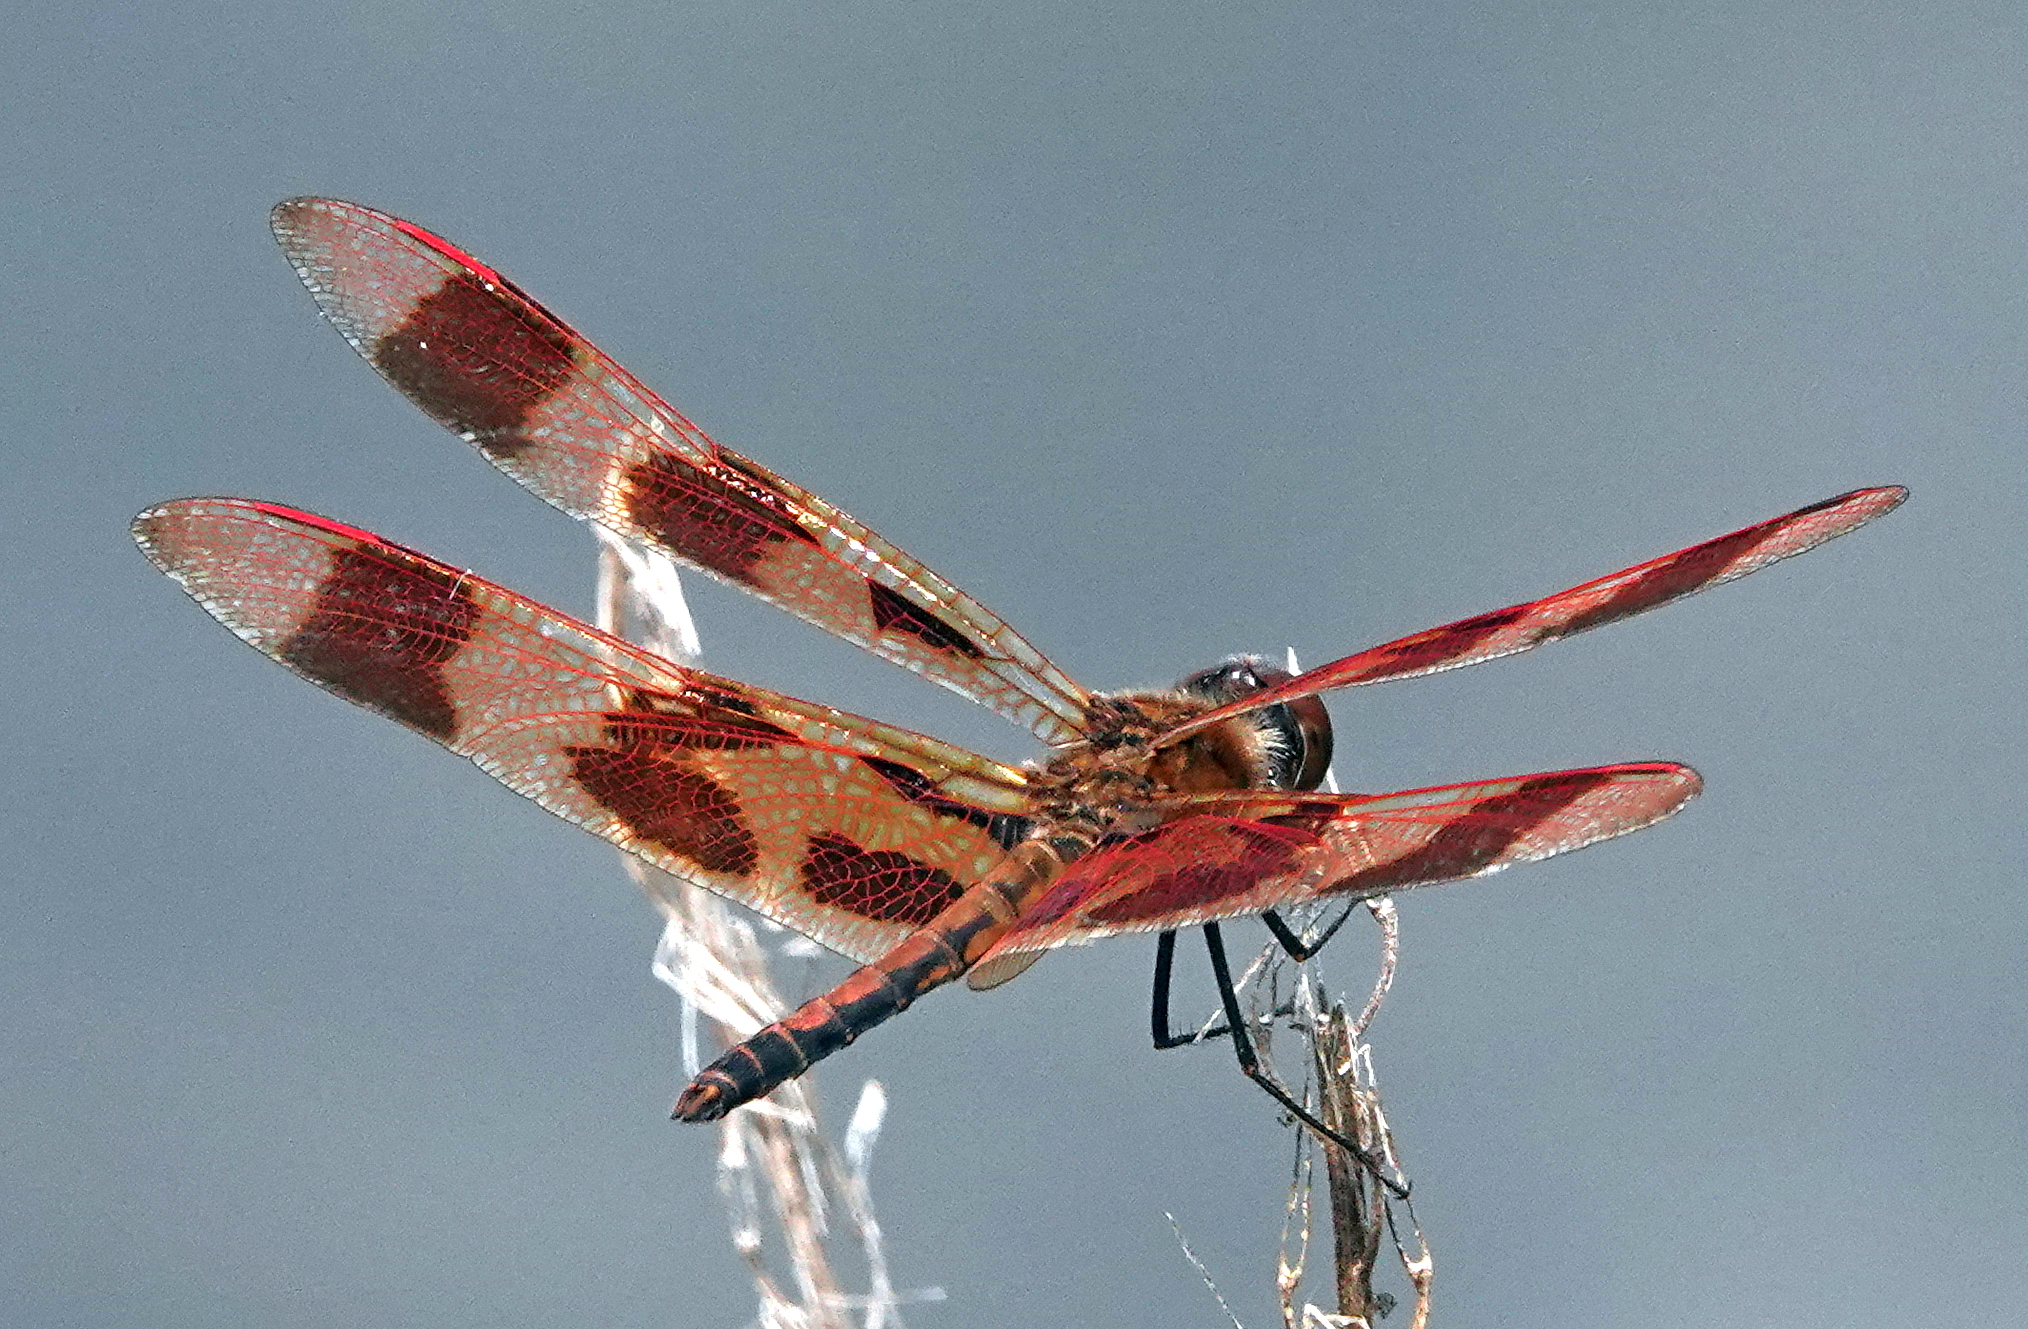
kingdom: Animalia
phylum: Arthropoda
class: Insecta
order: Odonata
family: Libellulidae
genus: Celithemis
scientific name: Celithemis eponina
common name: Halloween pennant
